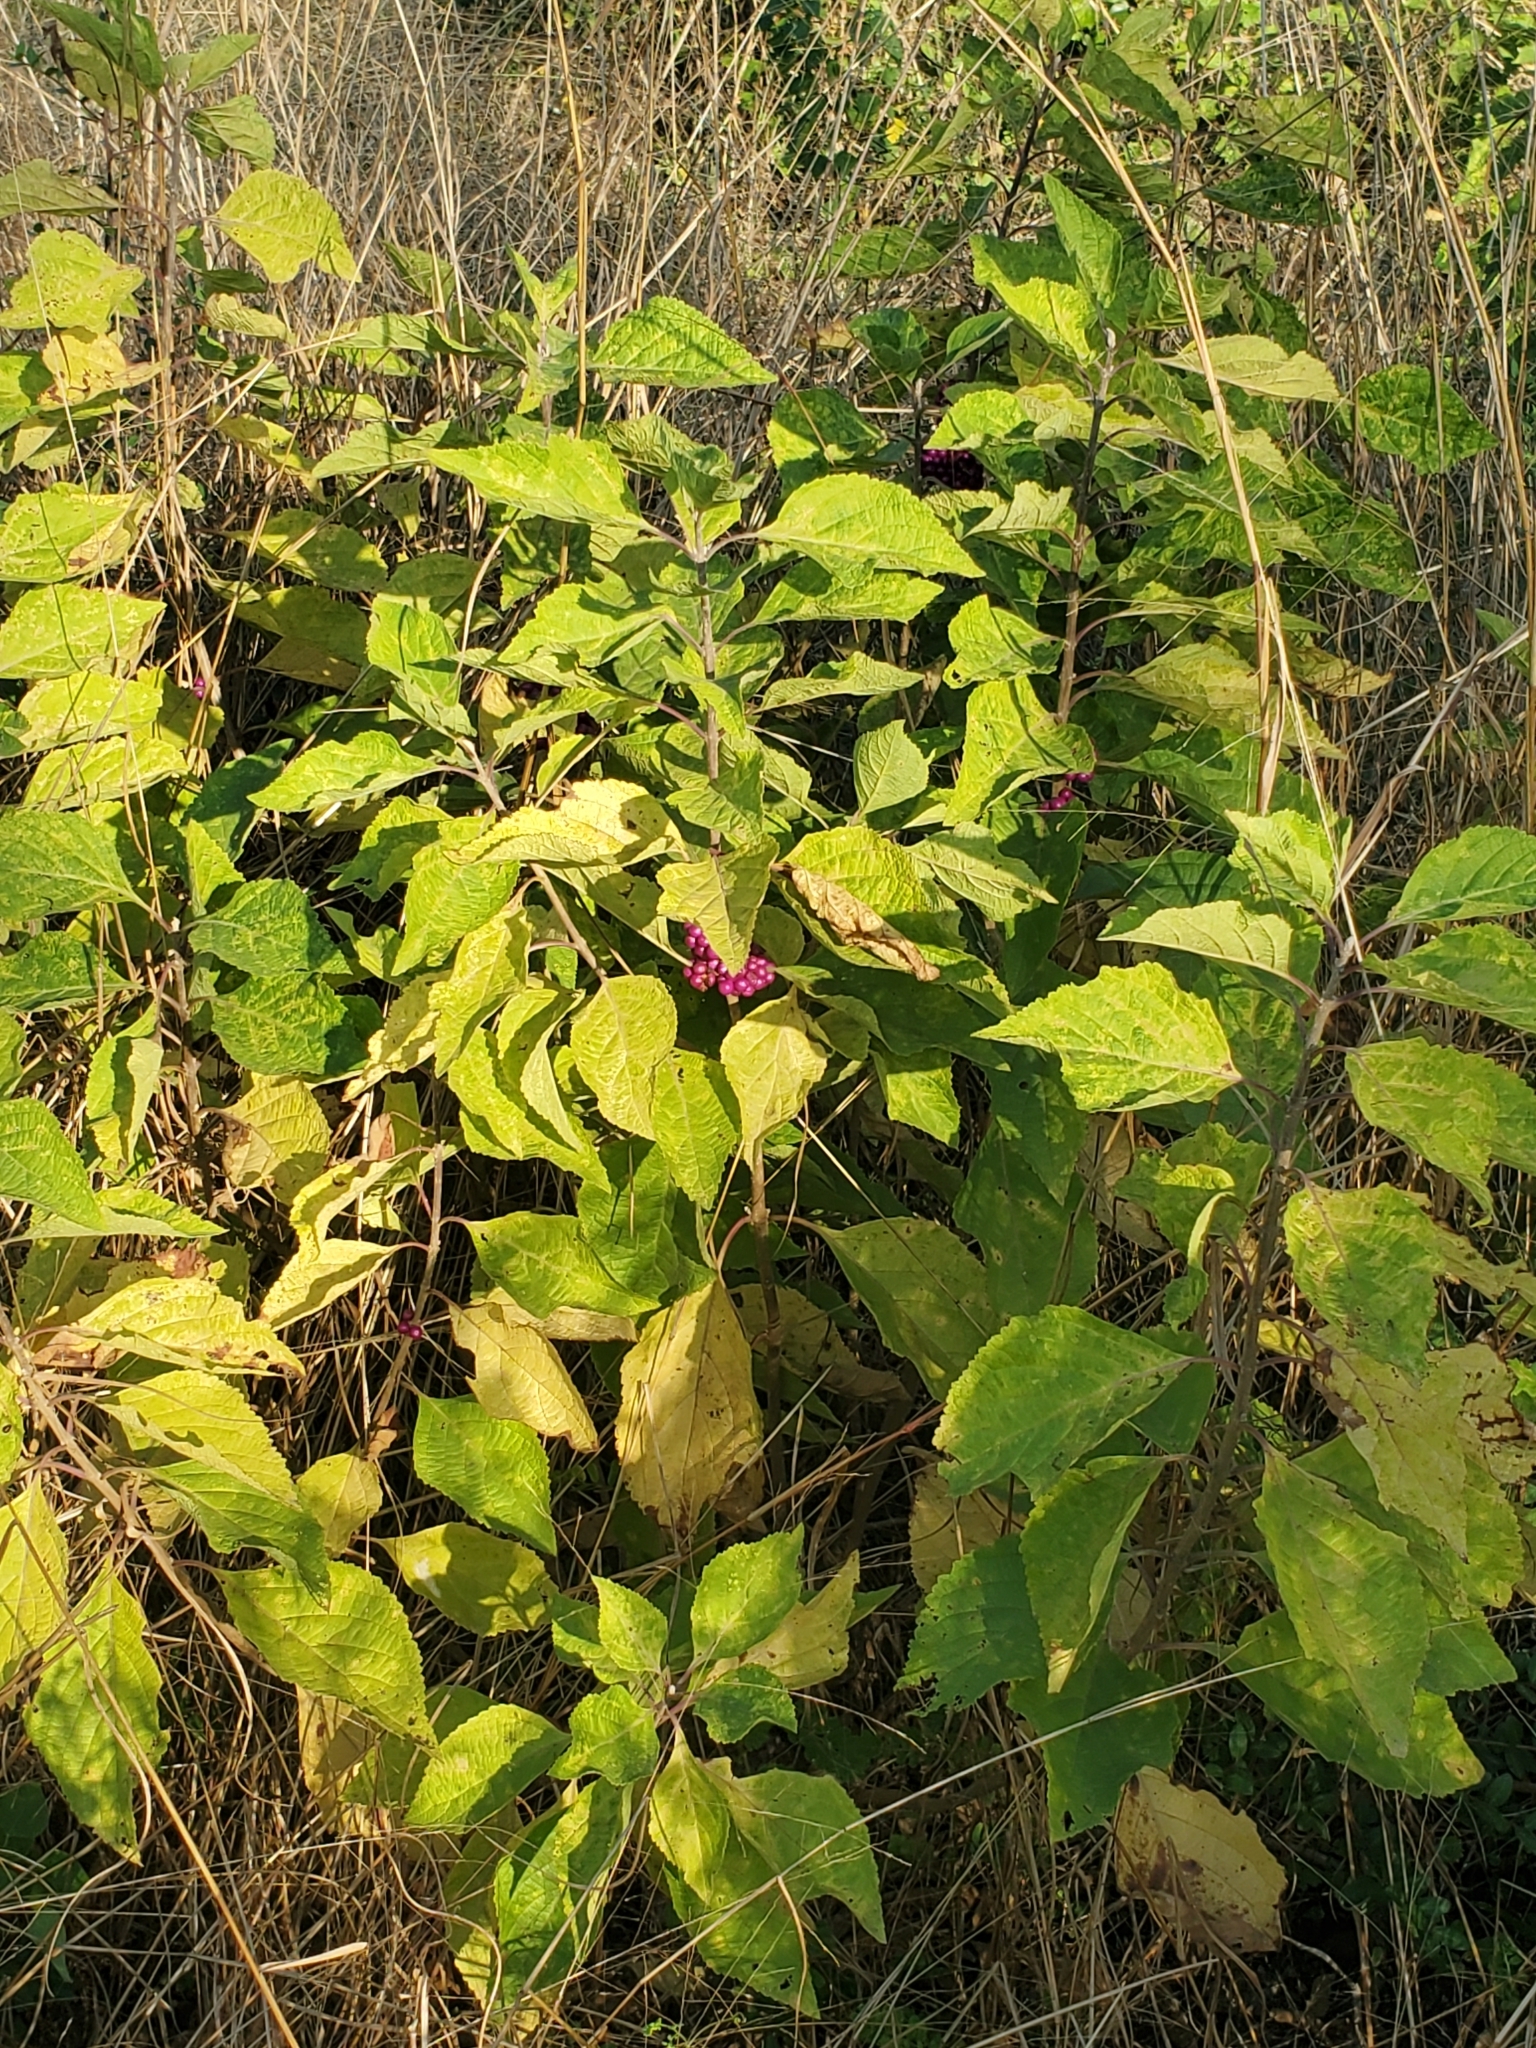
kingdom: Plantae
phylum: Tracheophyta
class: Magnoliopsida
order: Lamiales
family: Lamiaceae
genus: Callicarpa
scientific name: Callicarpa americana
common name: American beautyberry
